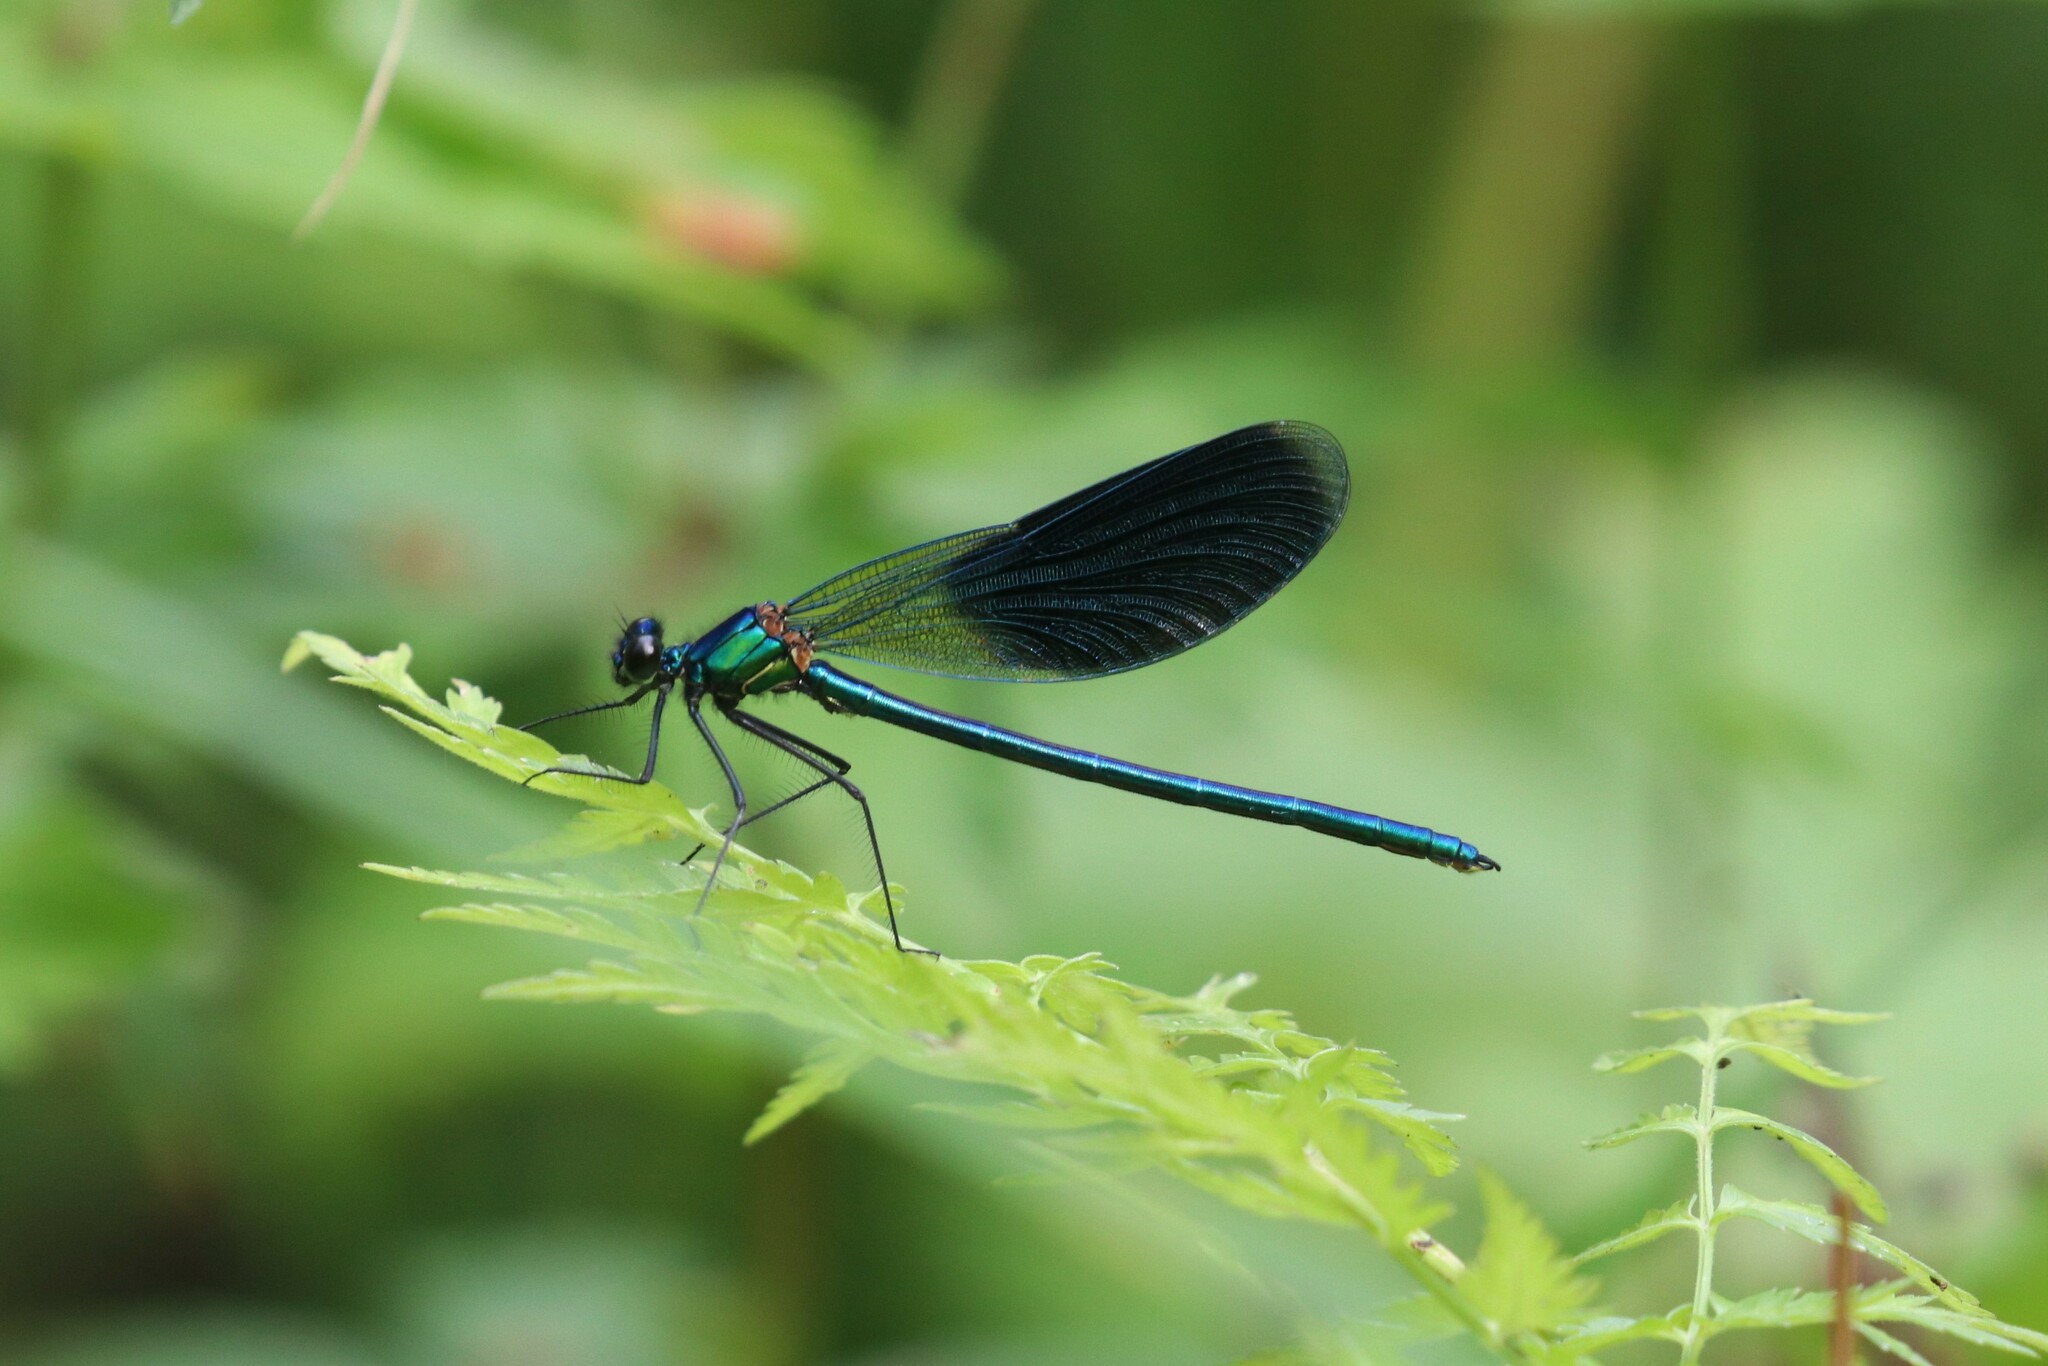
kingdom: Animalia
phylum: Arthropoda
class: Insecta
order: Odonata
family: Calopterygidae
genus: Calopteryx
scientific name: Calopteryx splendens
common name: Banded demoiselle
